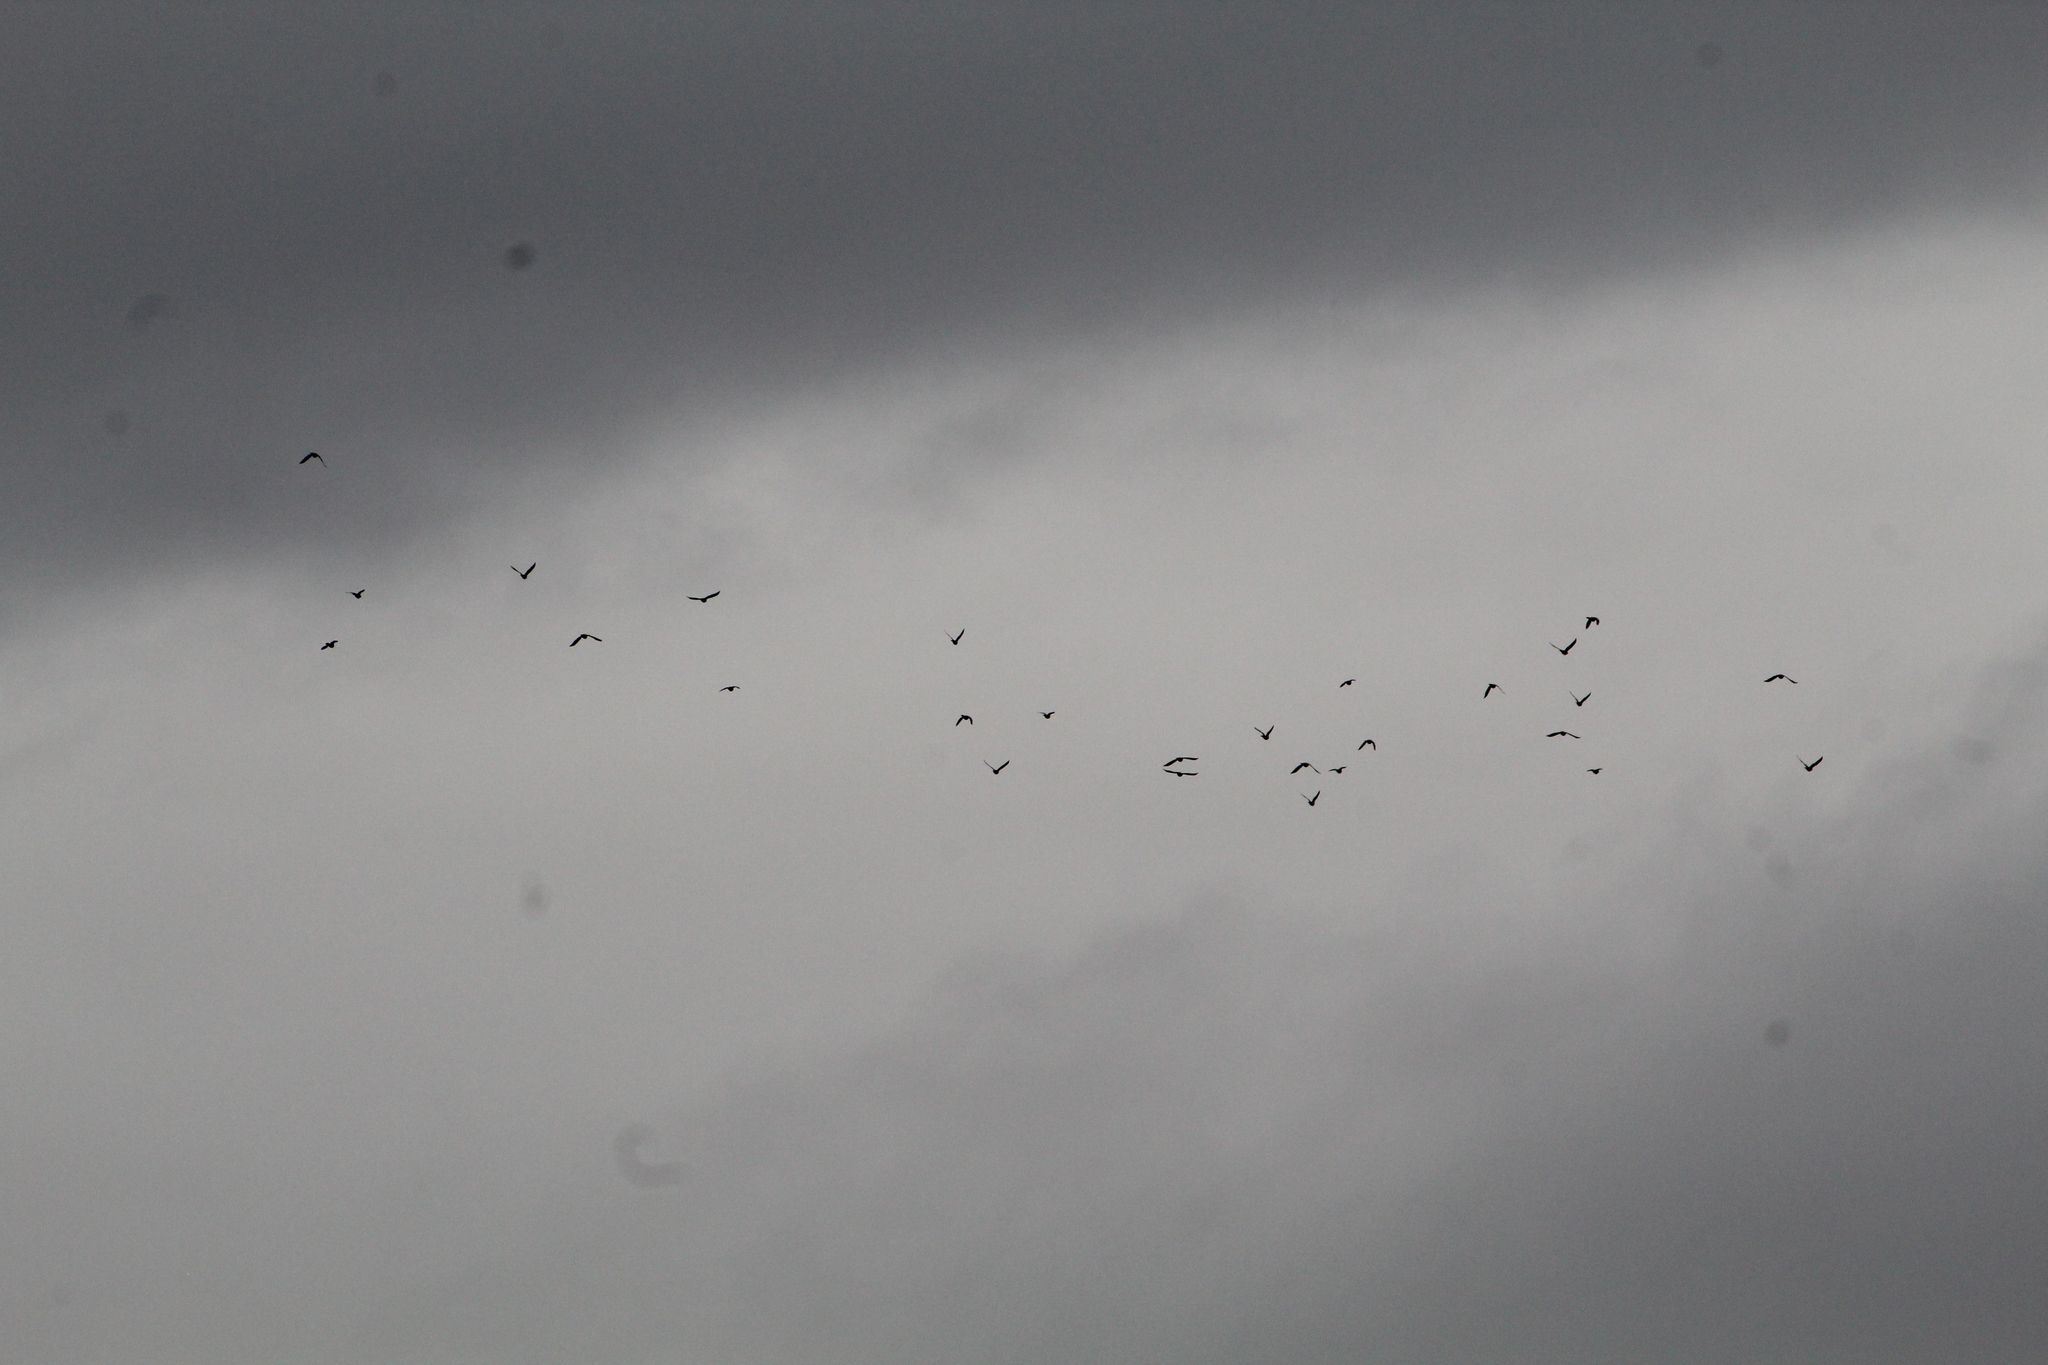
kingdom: Animalia
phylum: Chordata
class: Aves
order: Columbiformes
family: Columbidae
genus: Columba
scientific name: Columba palumbus
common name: Common wood pigeon
